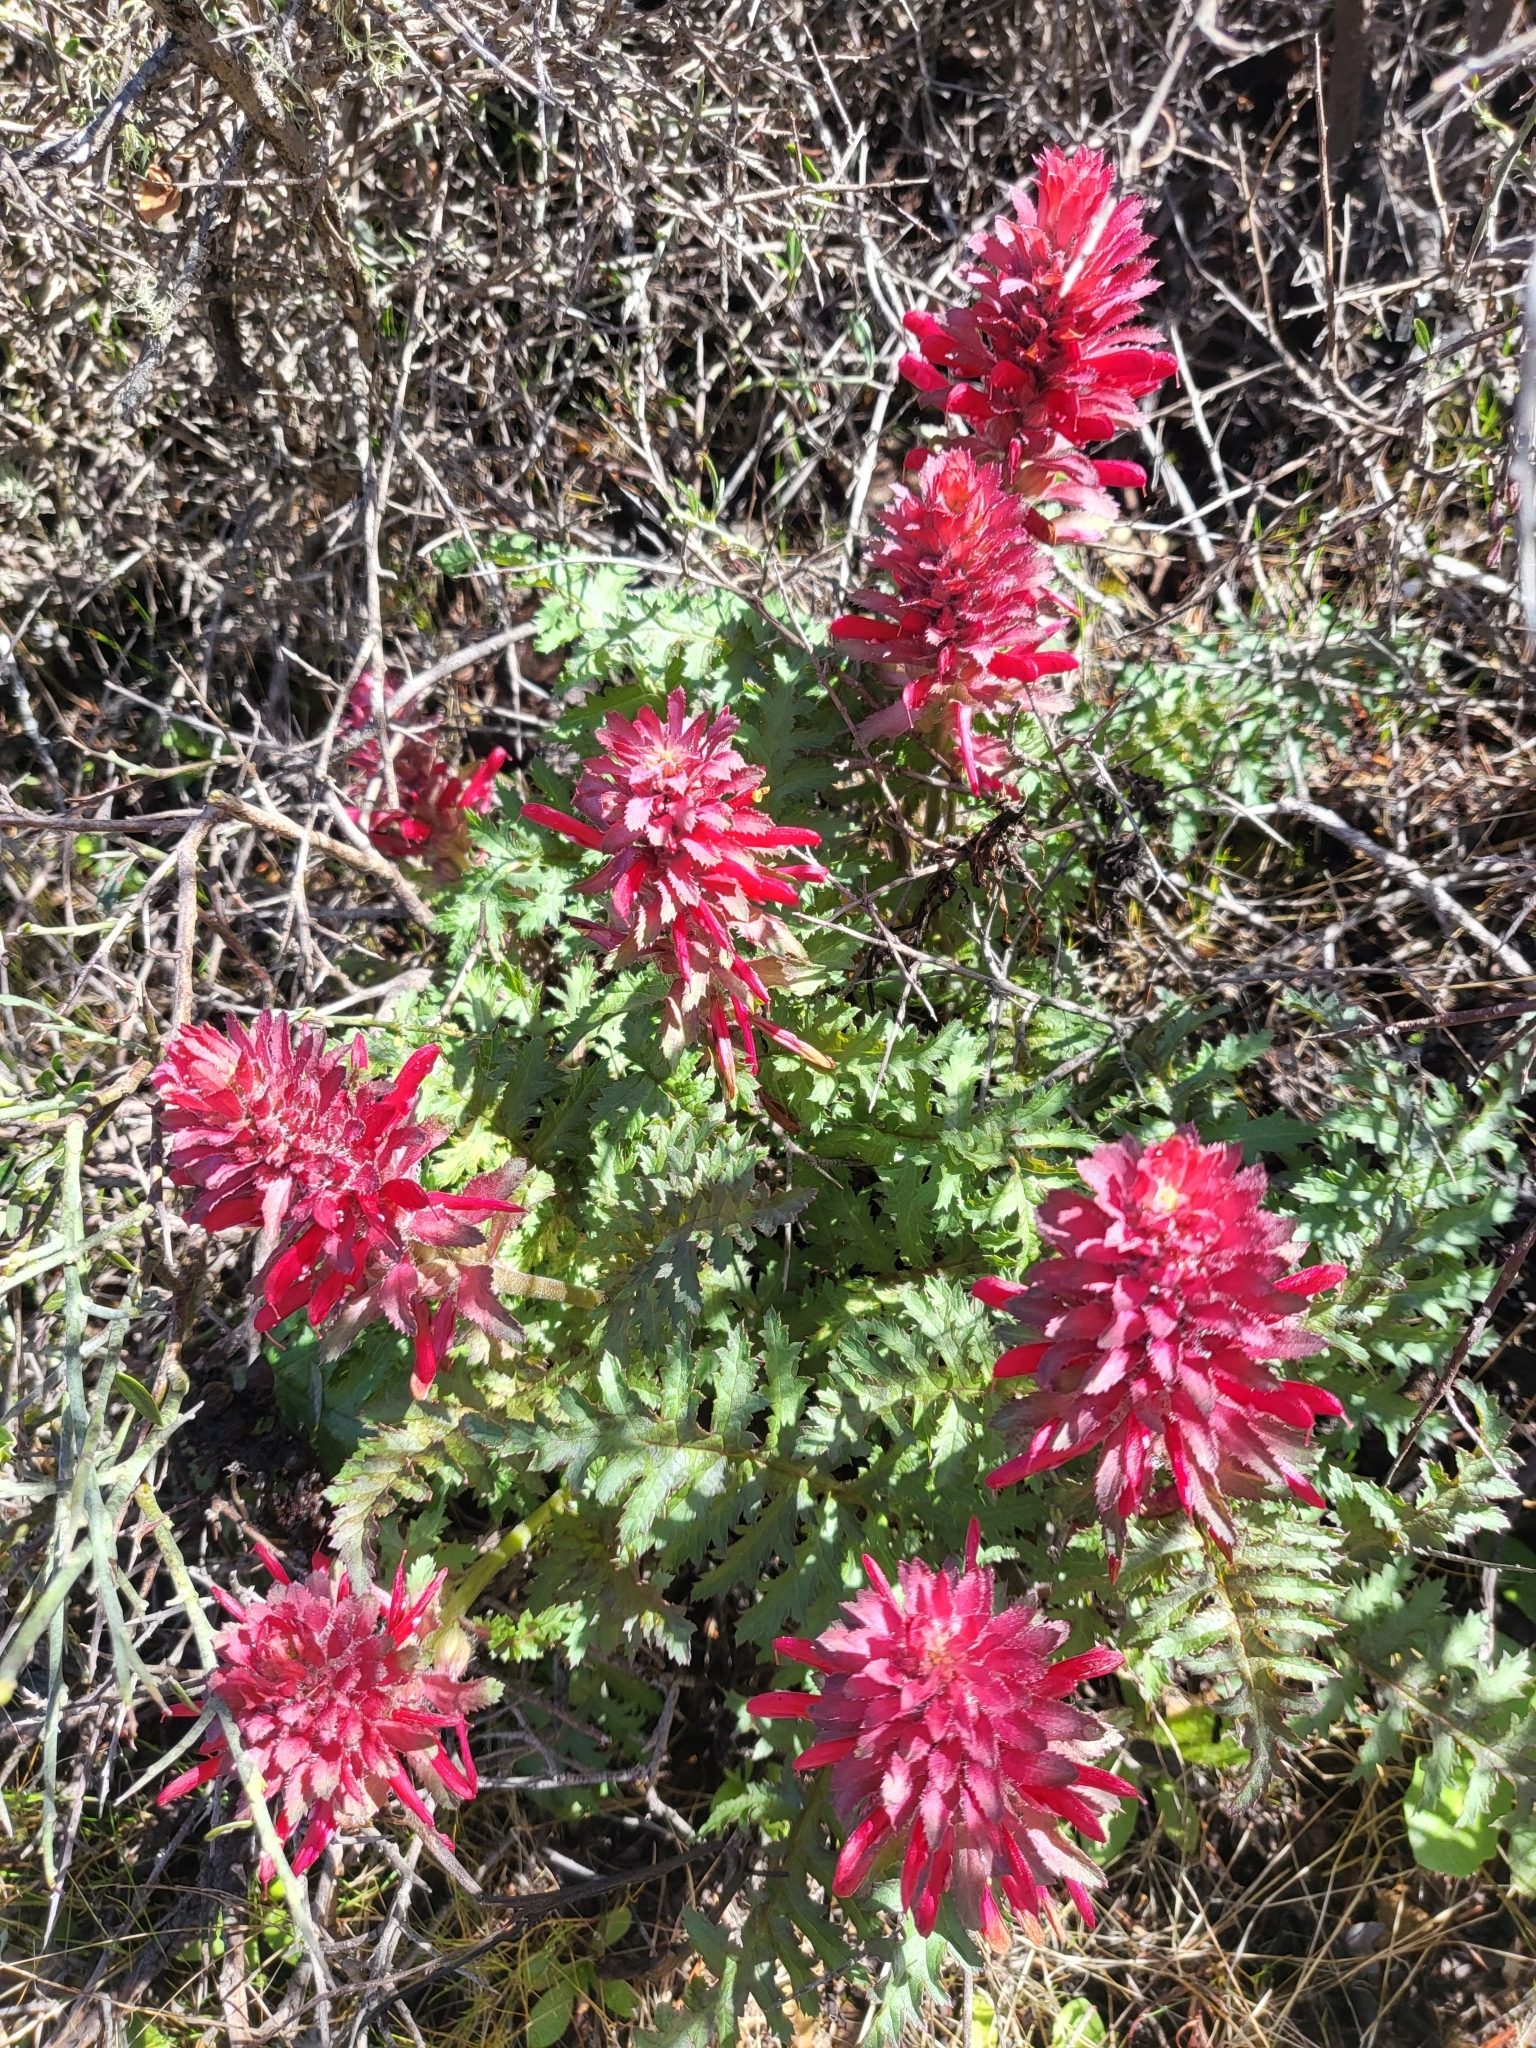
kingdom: Plantae
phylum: Tracheophyta
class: Magnoliopsida
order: Lamiales
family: Orobanchaceae
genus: Pedicularis
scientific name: Pedicularis densiflora
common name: Indian warrior
